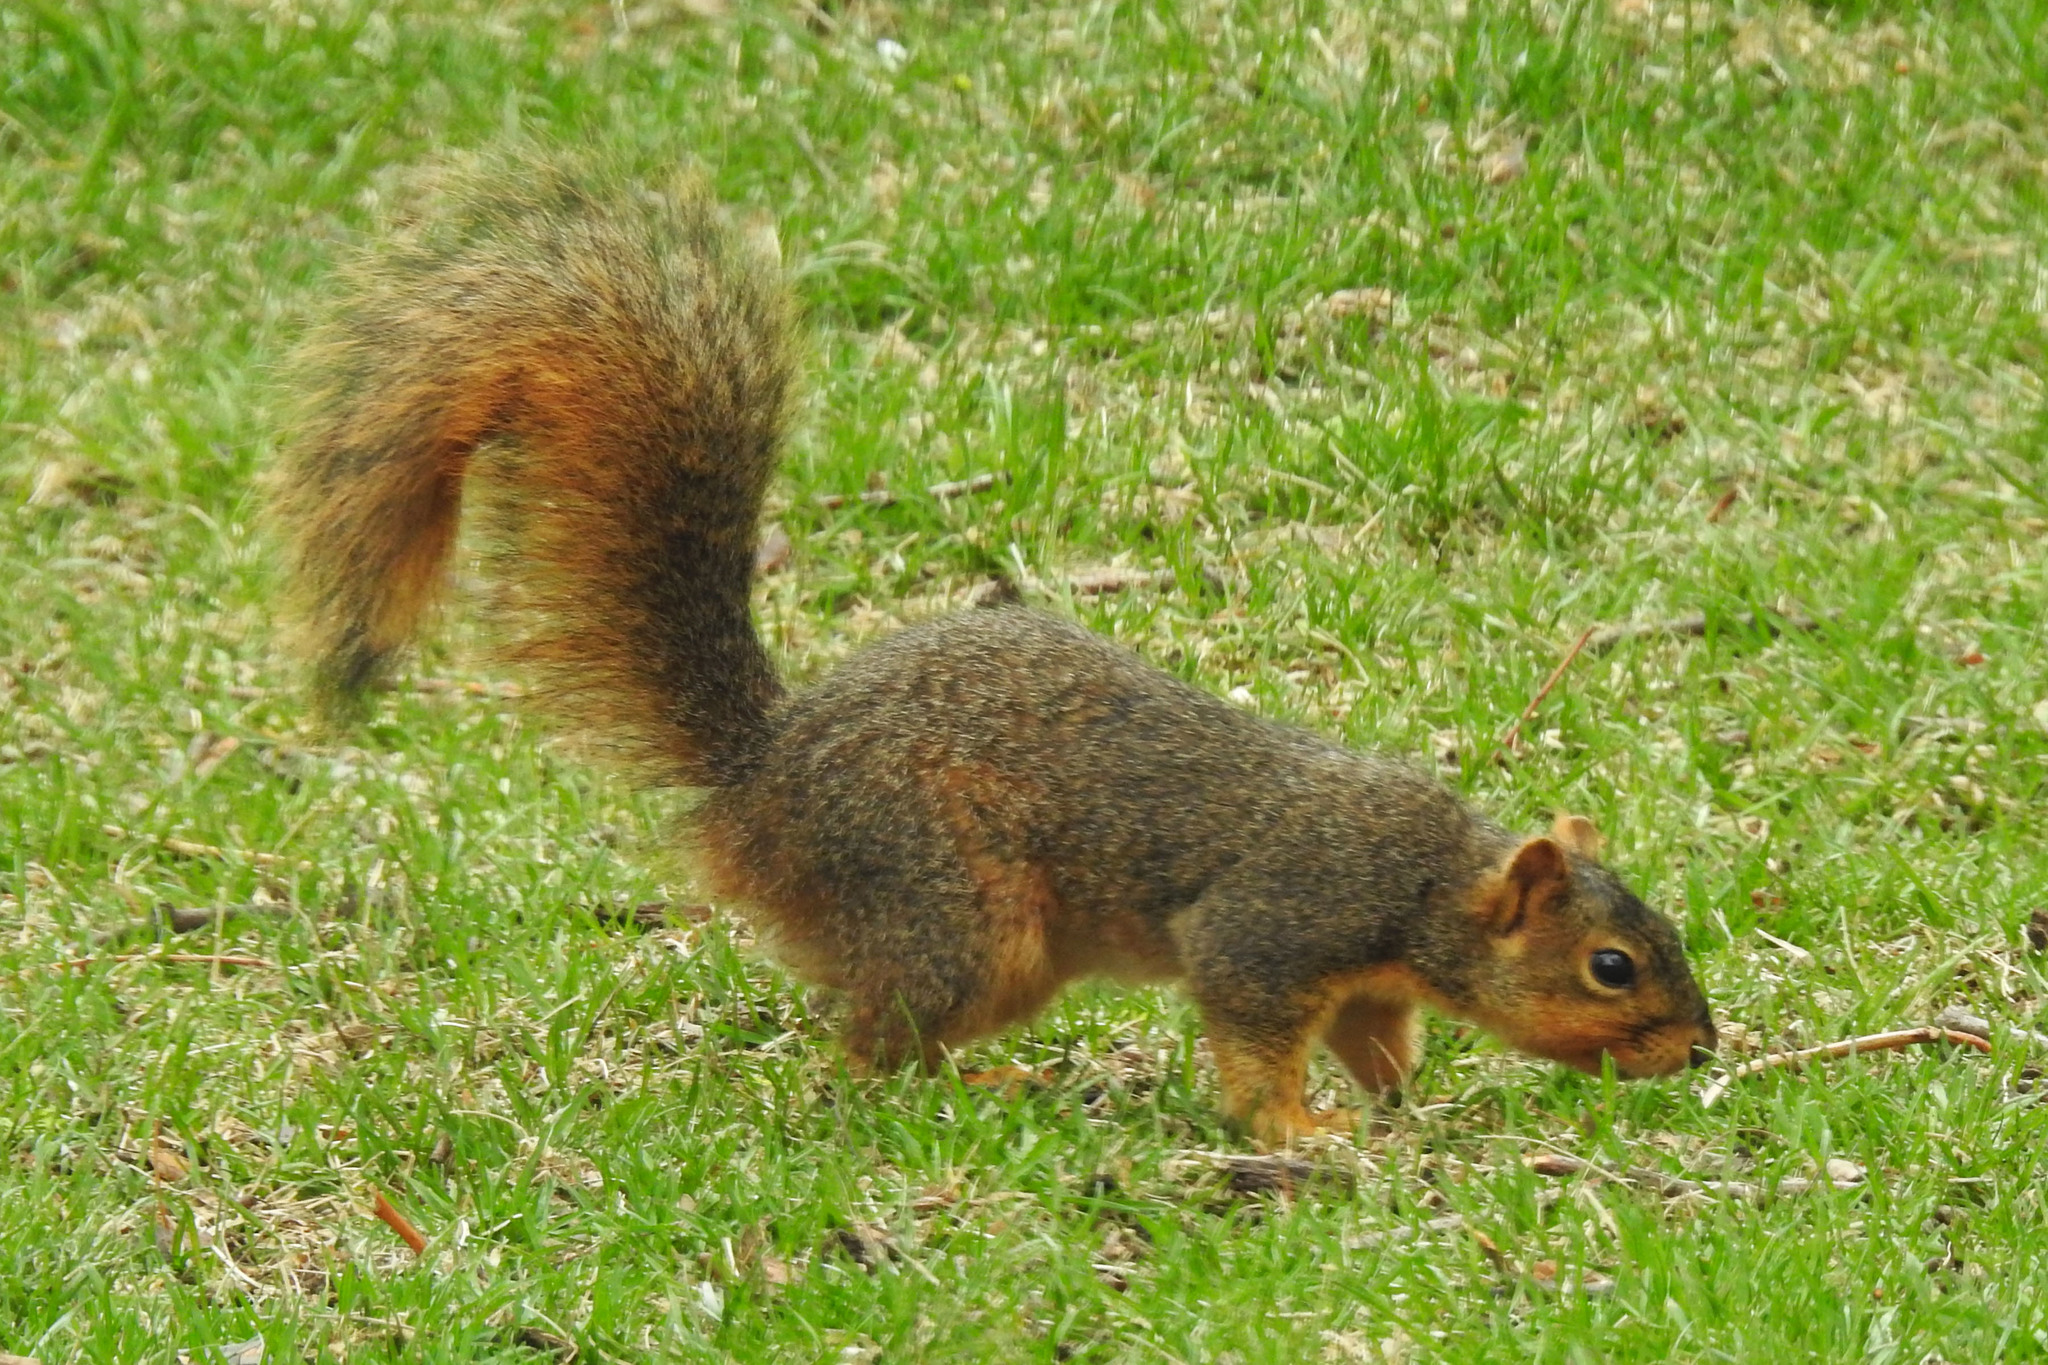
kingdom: Animalia
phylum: Chordata
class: Mammalia
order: Rodentia
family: Sciuridae
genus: Sciurus
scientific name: Sciurus niger
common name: Fox squirrel
